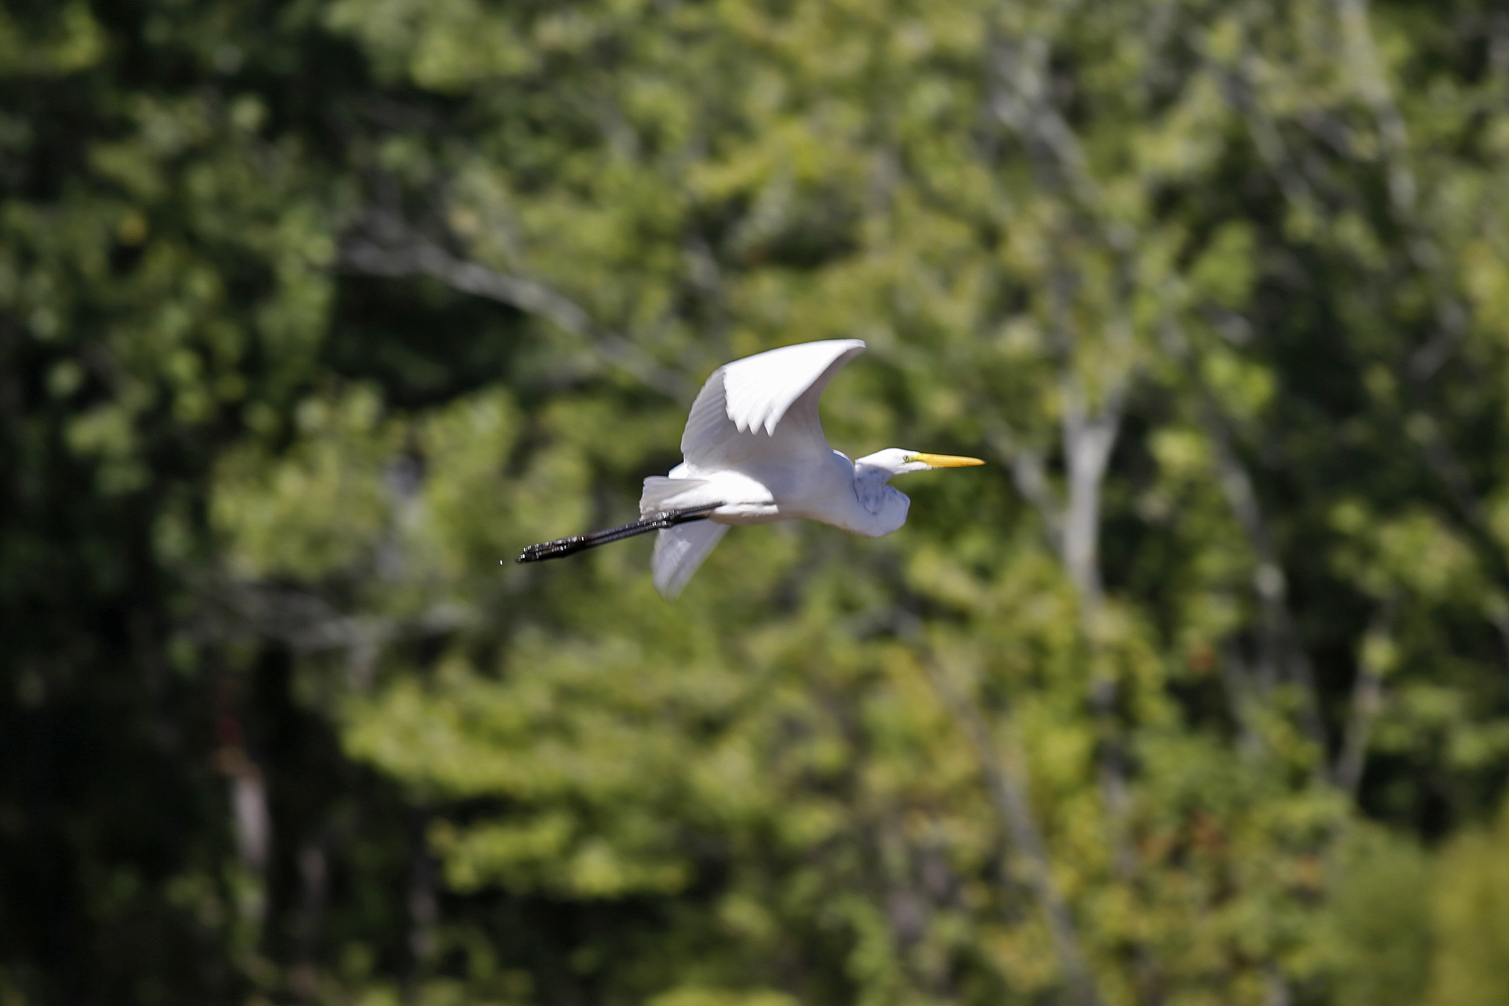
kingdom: Animalia
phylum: Chordata
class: Aves
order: Pelecaniformes
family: Ardeidae
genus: Ardea
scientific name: Ardea alba
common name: Great egret
